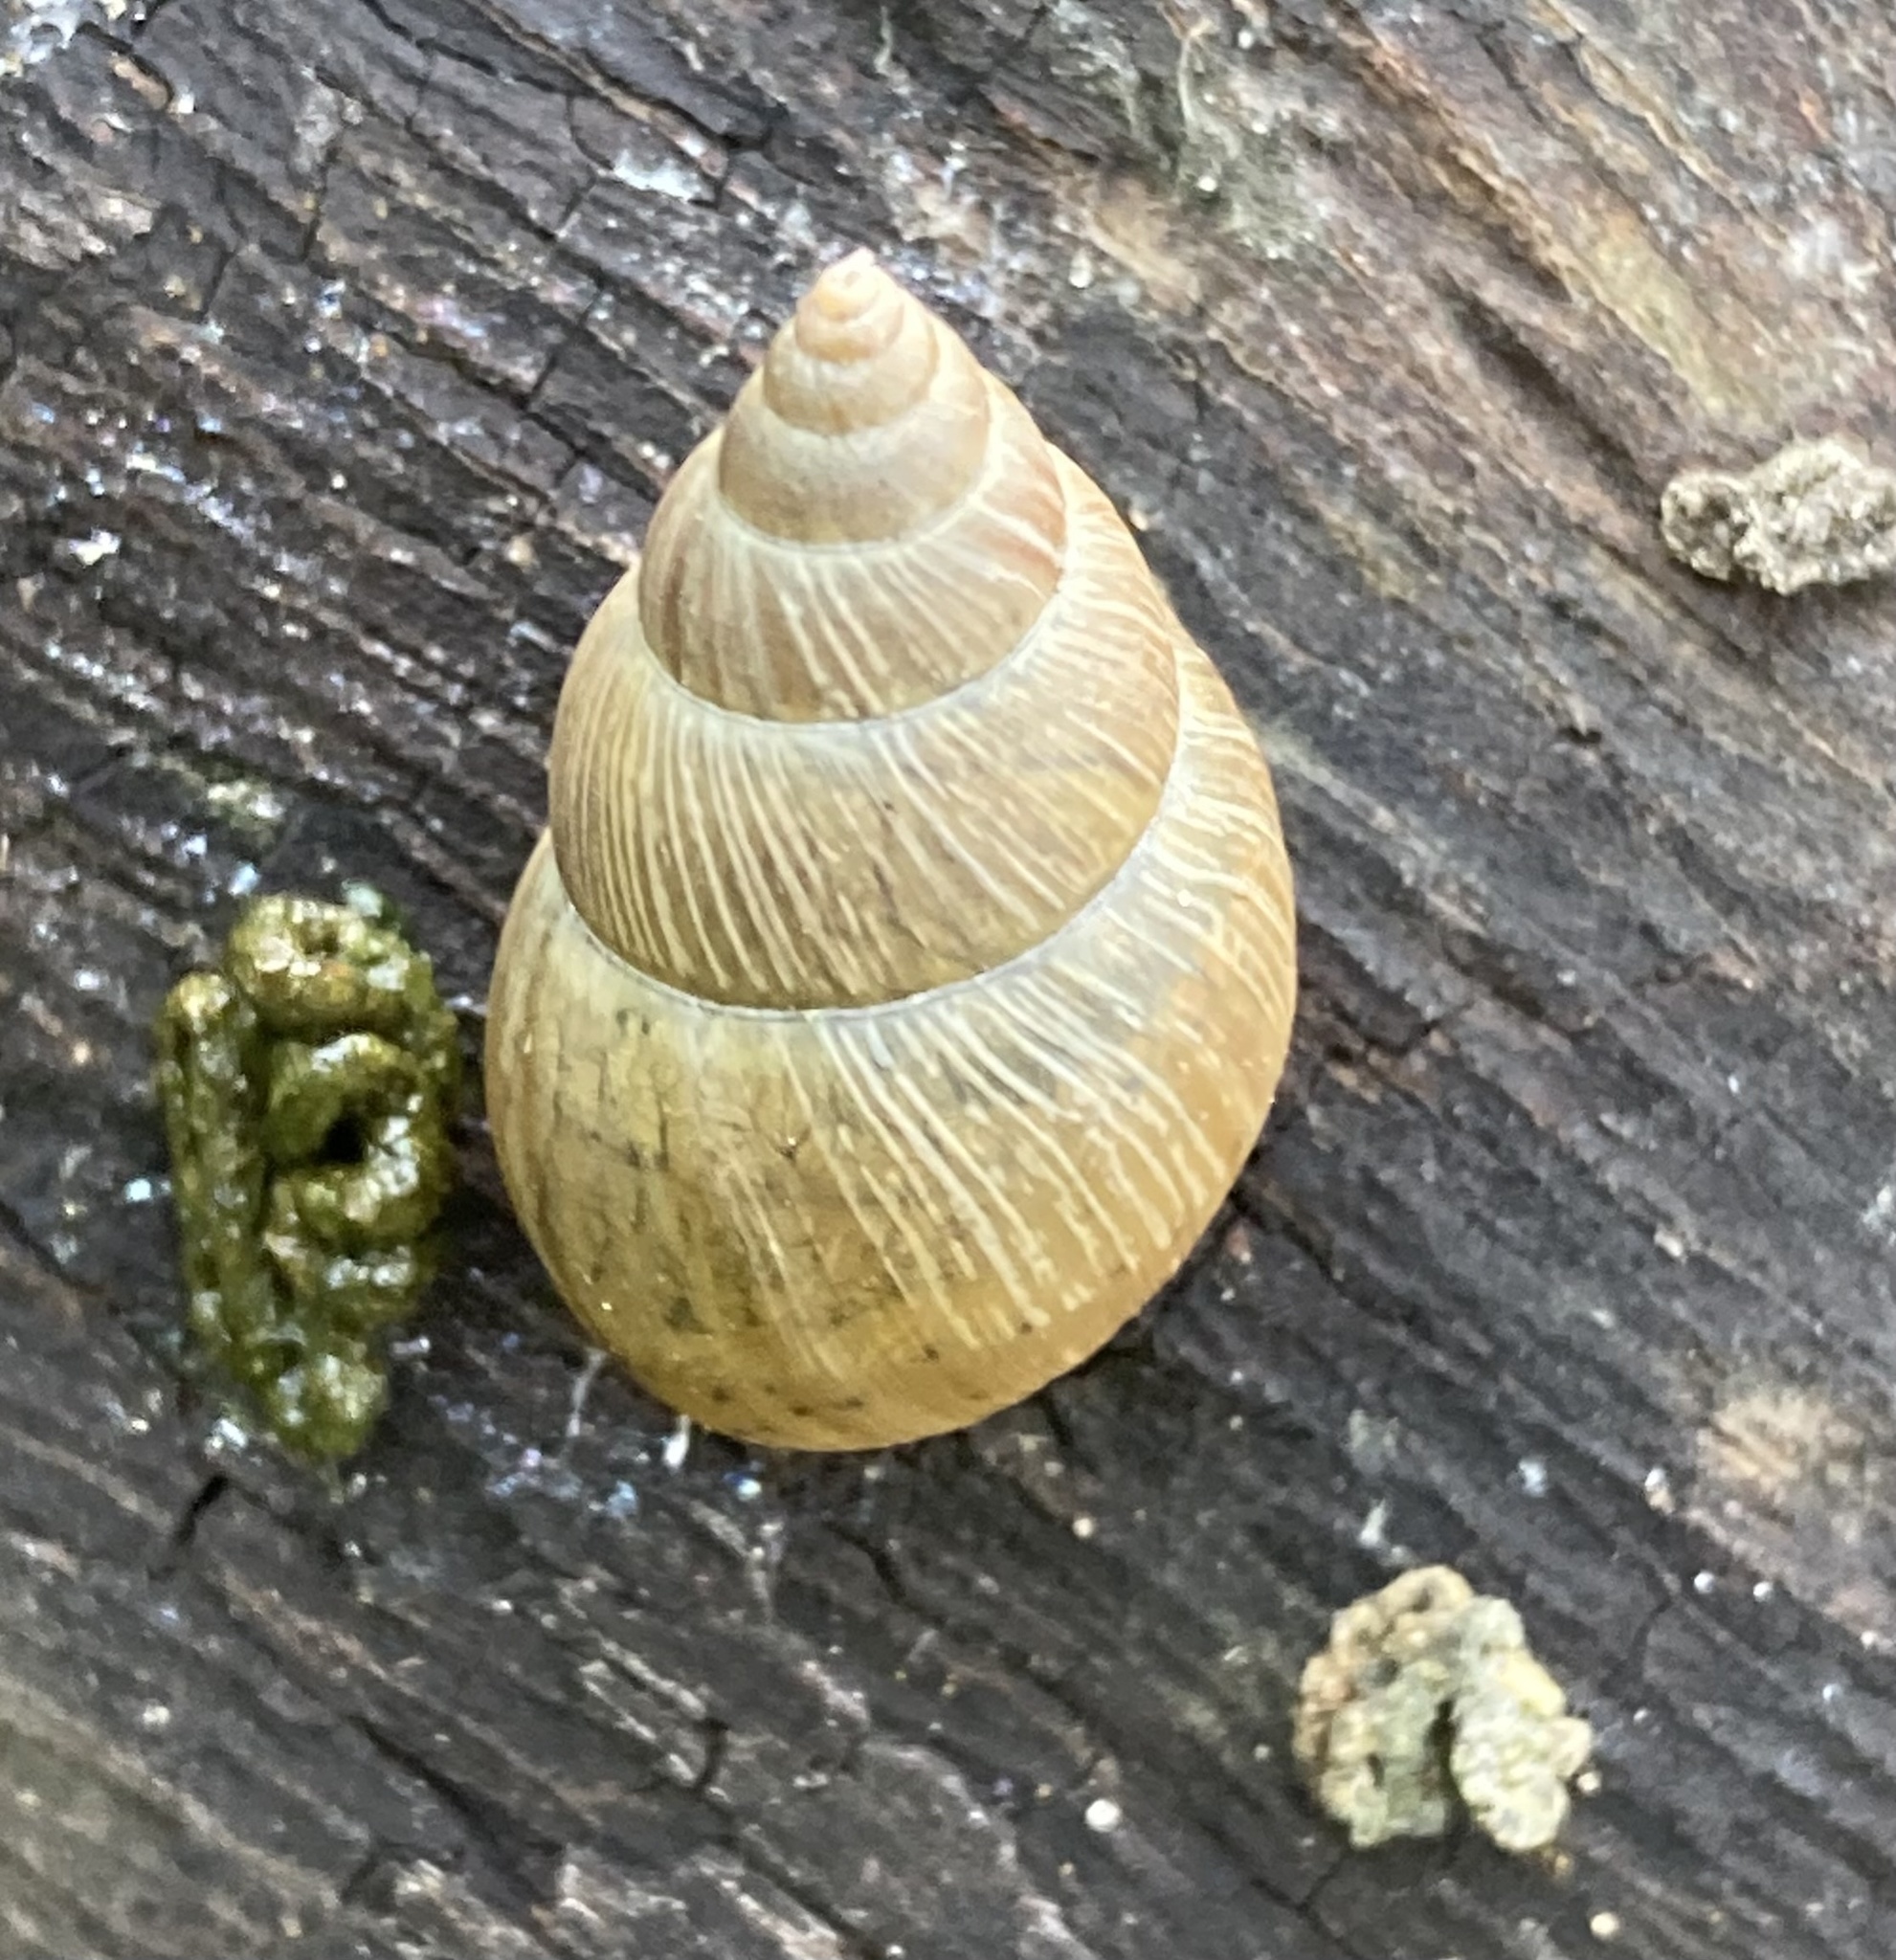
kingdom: Animalia
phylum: Mollusca
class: Gastropoda
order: Stylommatophora
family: Bulimulidae
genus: Bulimulus
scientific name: Bulimulus bonariensis
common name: Snail
